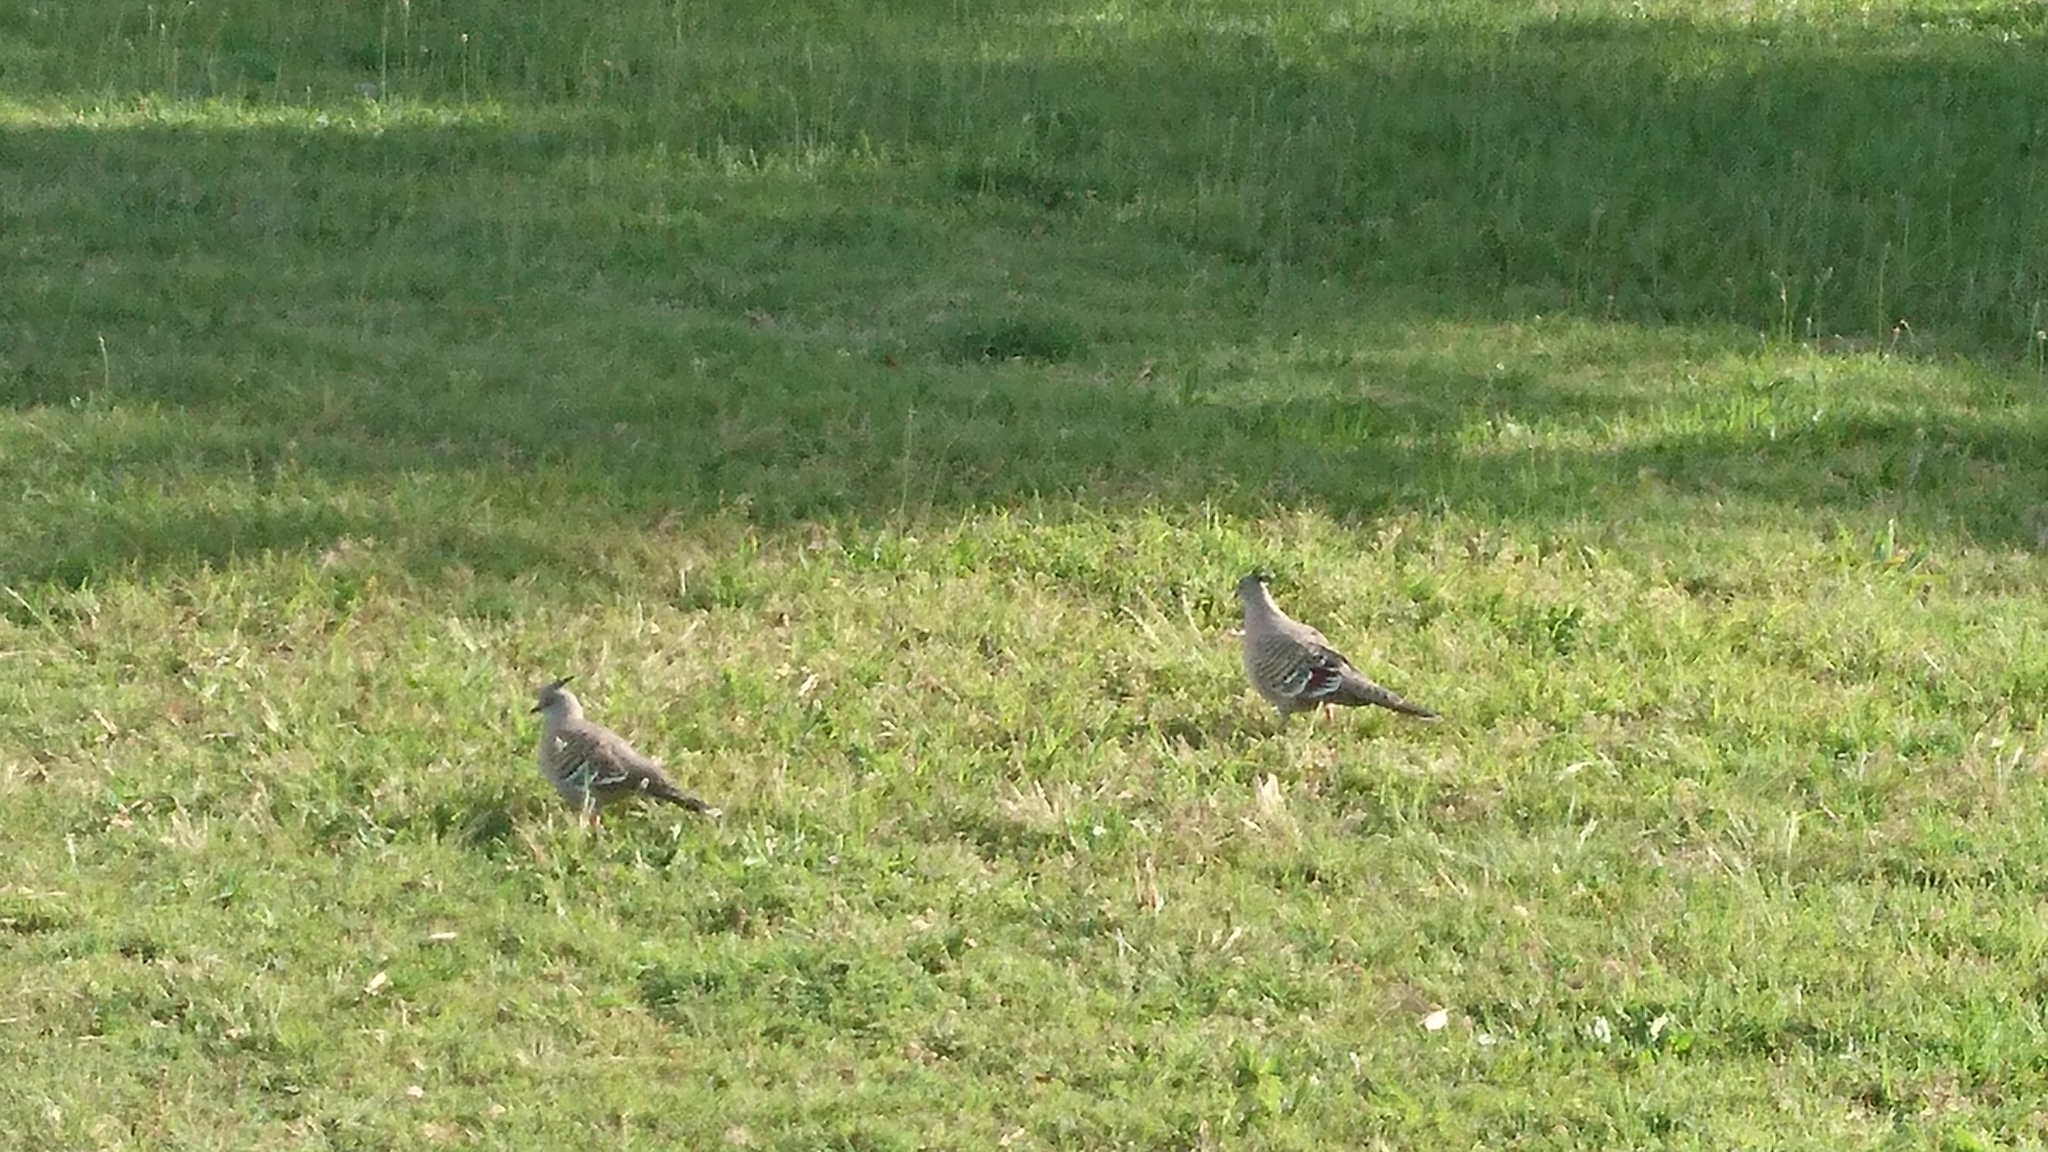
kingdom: Animalia
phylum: Chordata
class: Aves
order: Columbiformes
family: Columbidae
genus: Ocyphaps
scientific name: Ocyphaps lophotes
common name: Crested pigeon
